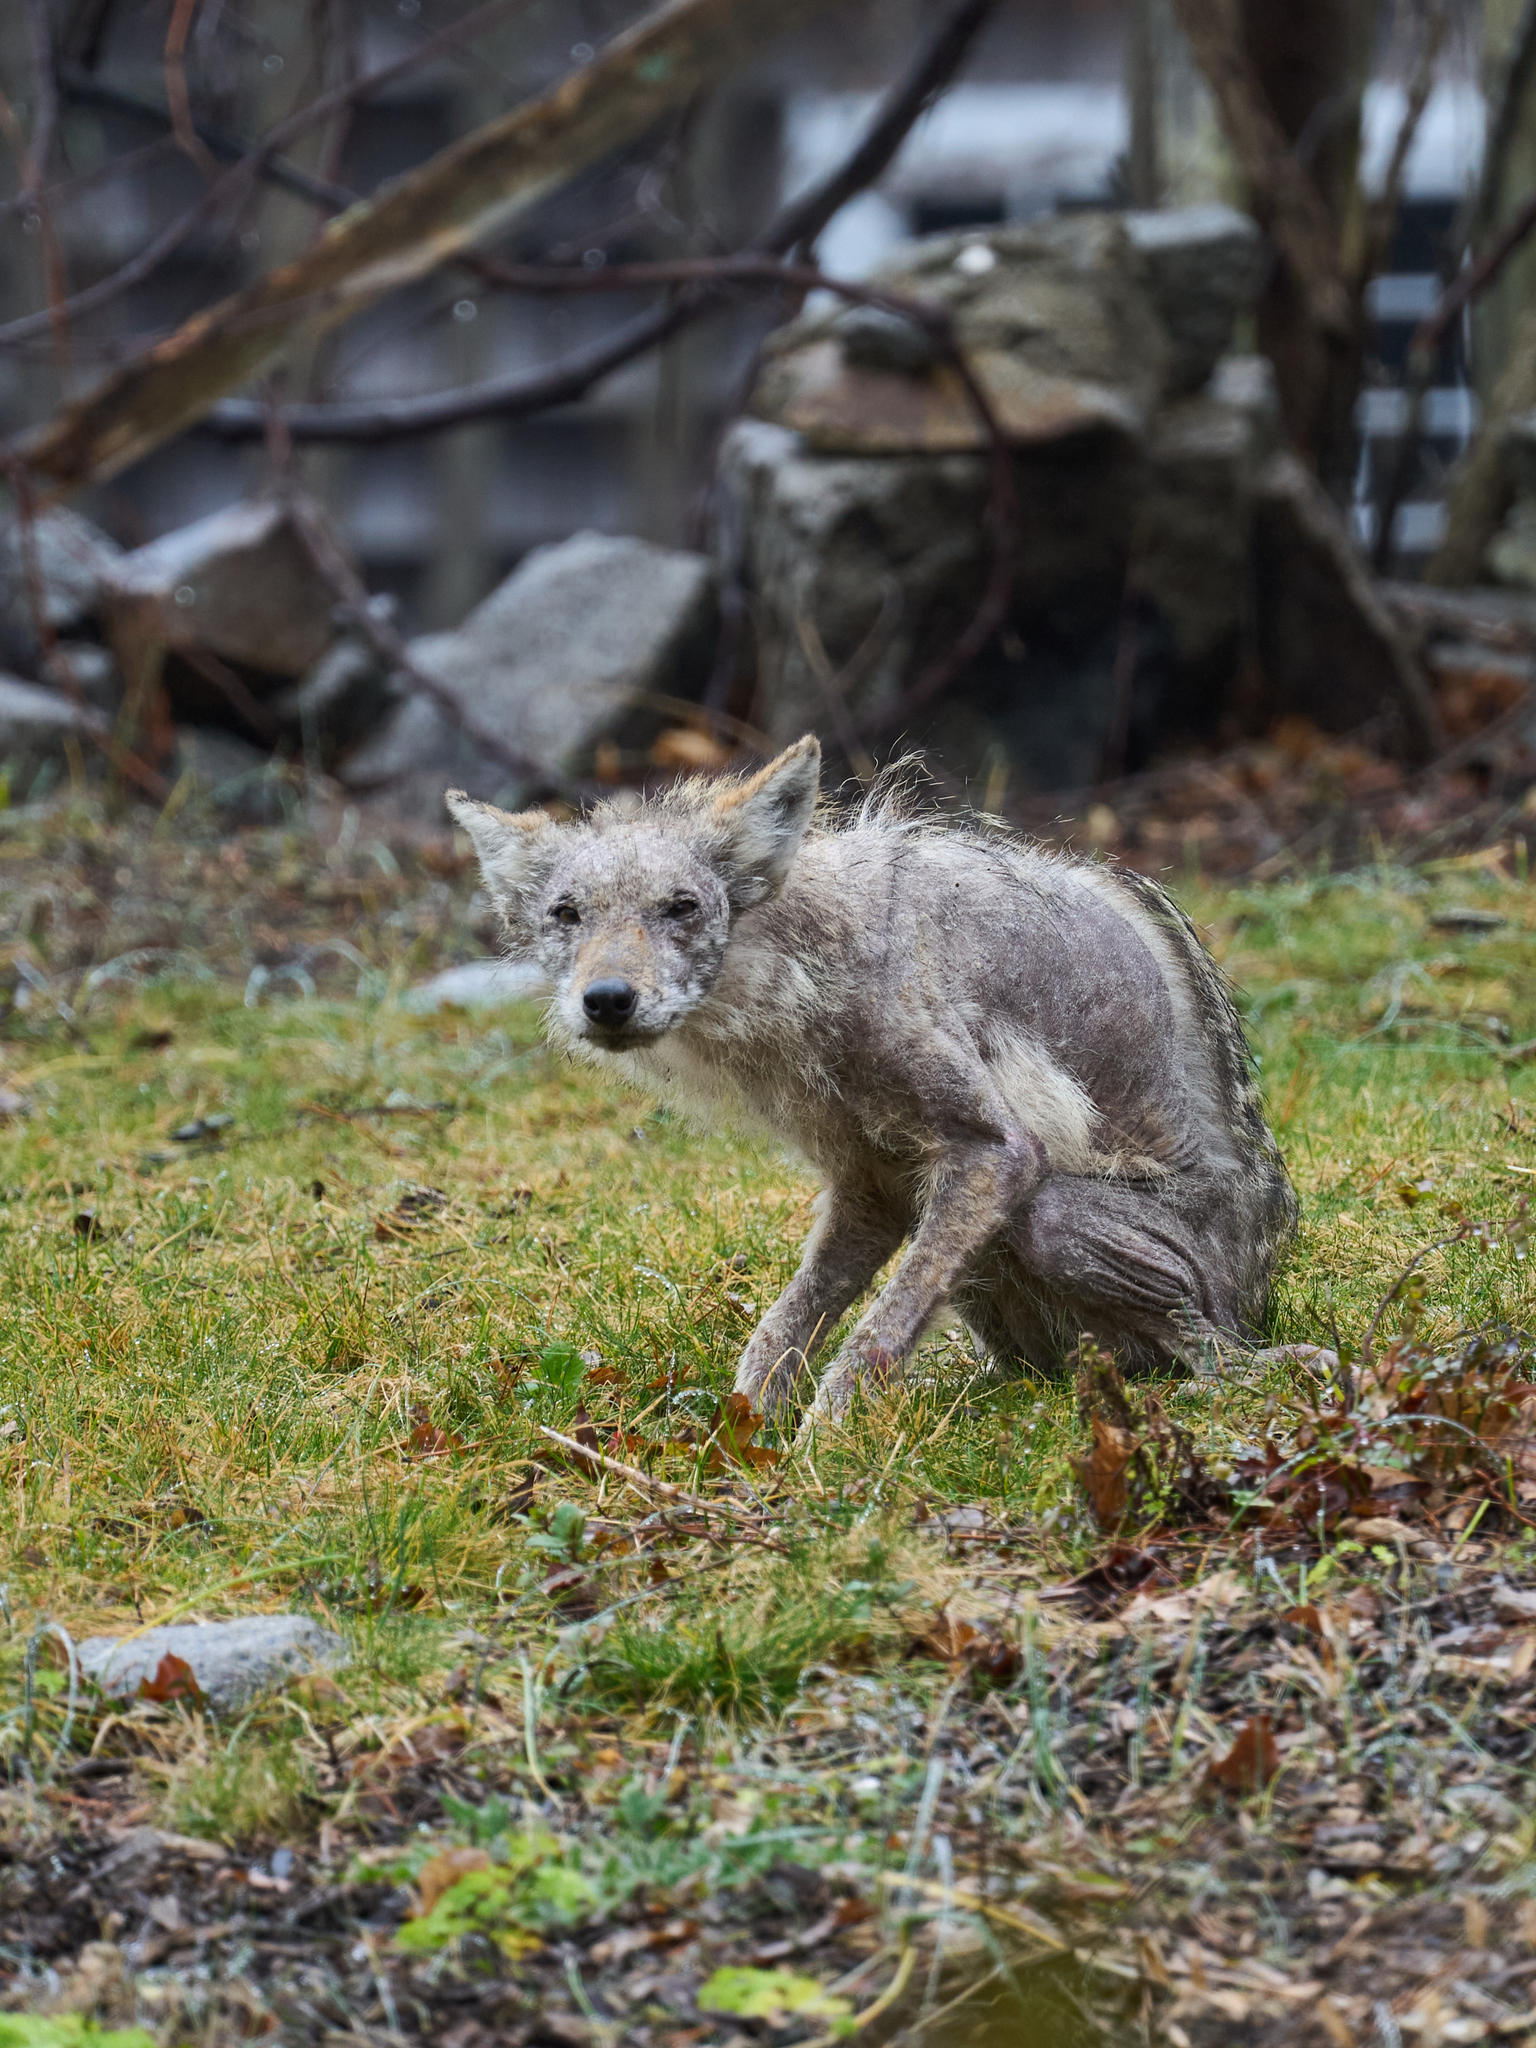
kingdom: Animalia
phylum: Chordata
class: Mammalia
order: Carnivora
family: Canidae
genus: Canis
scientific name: Canis latrans
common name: Coyote
